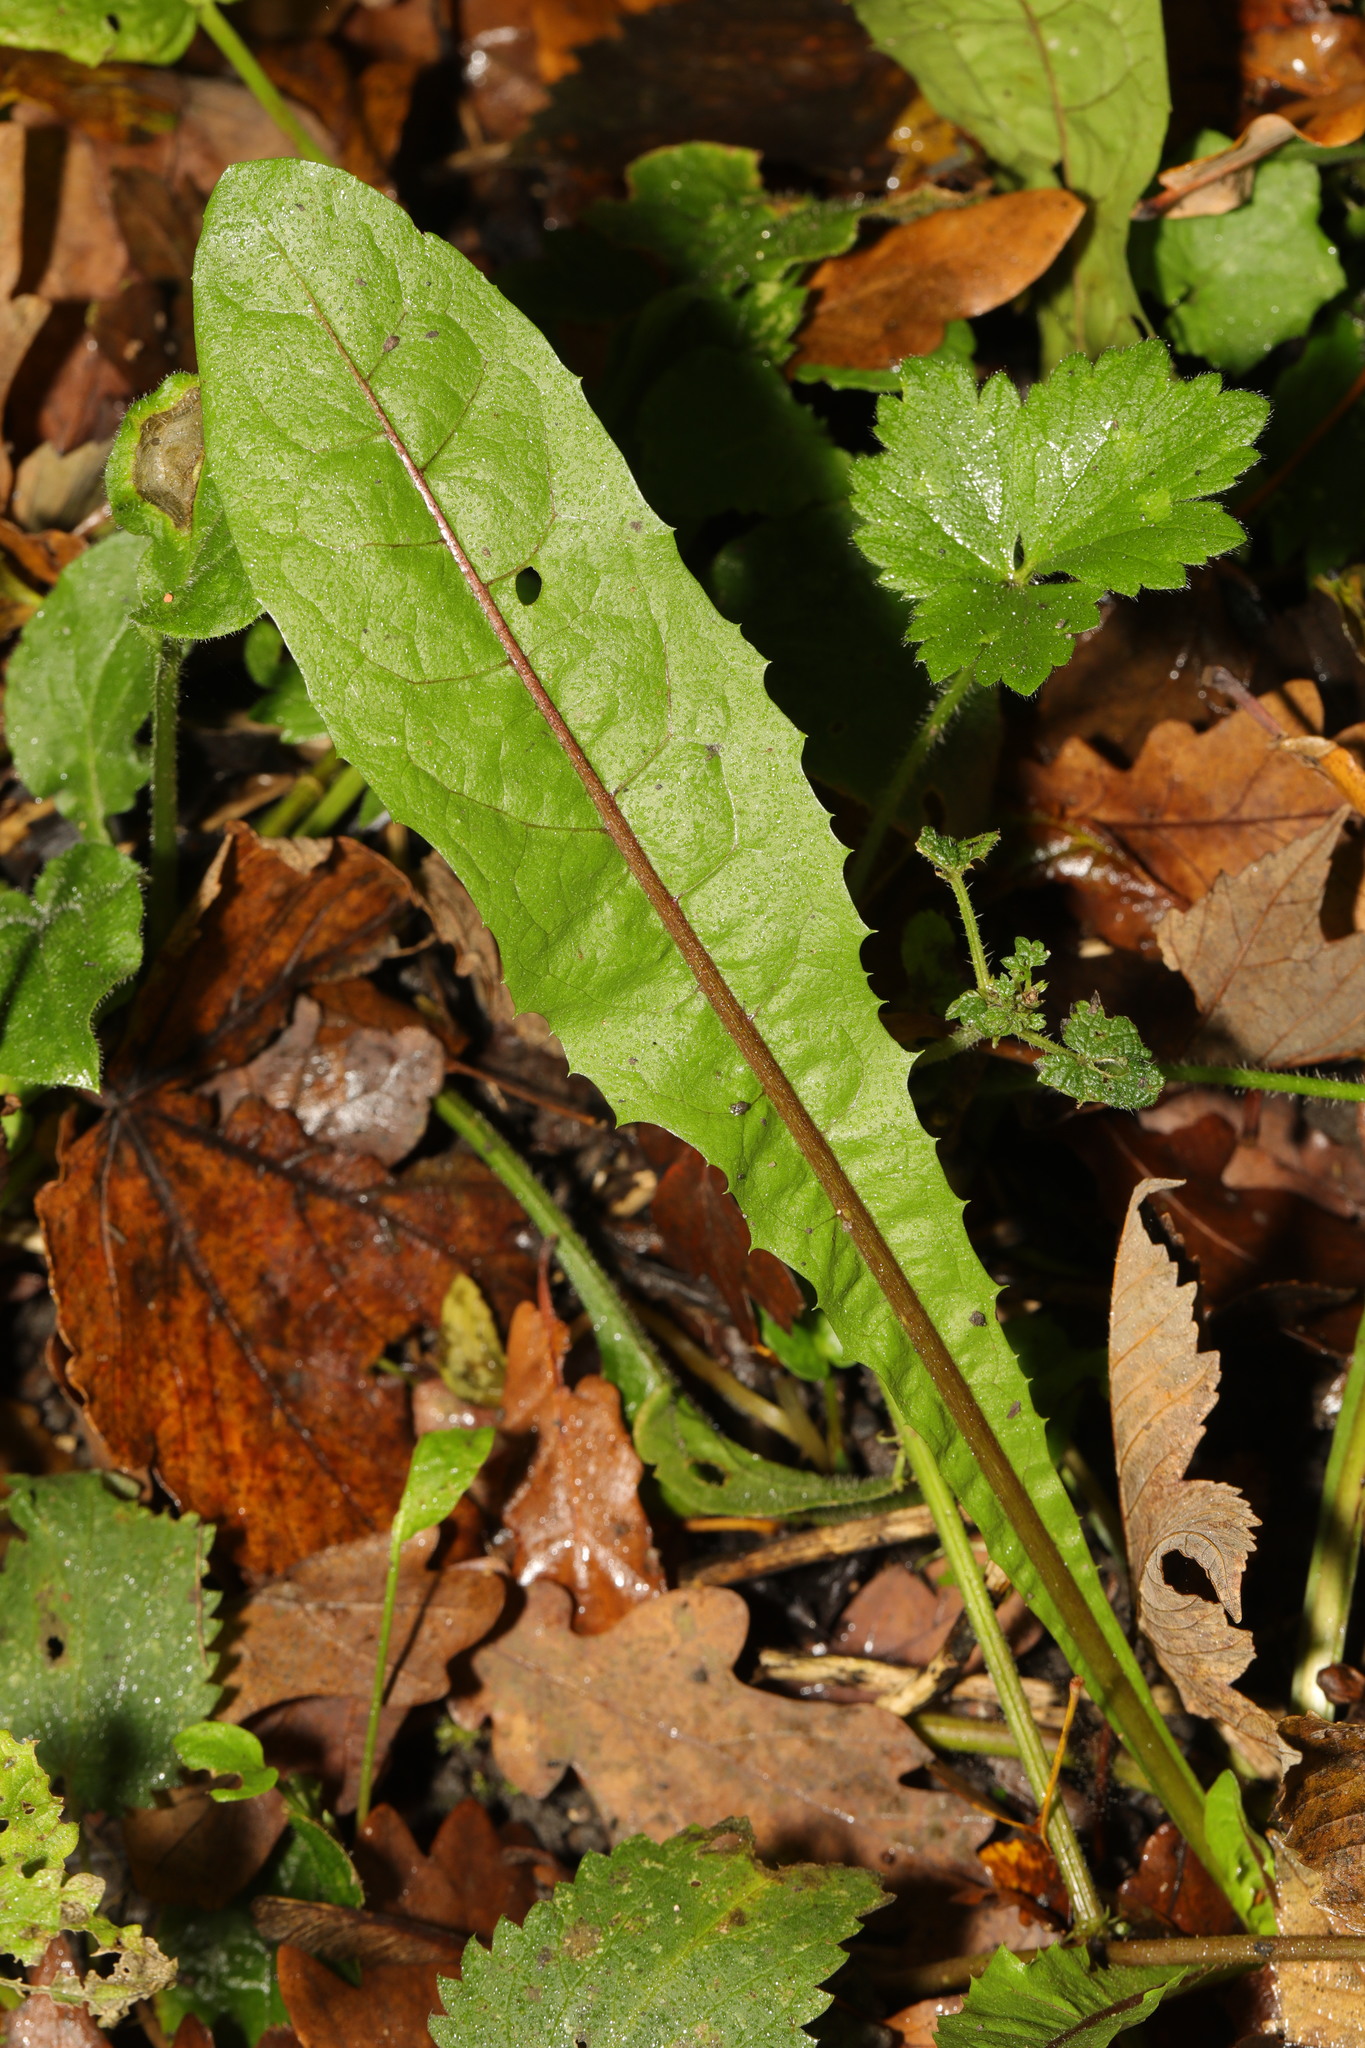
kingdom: Plantae
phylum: Tracheophyta
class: Magnoliopsida
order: Asterales
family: Asteraceae
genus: Taraxacum
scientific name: Taraxacum officinale
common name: Common dandelion
